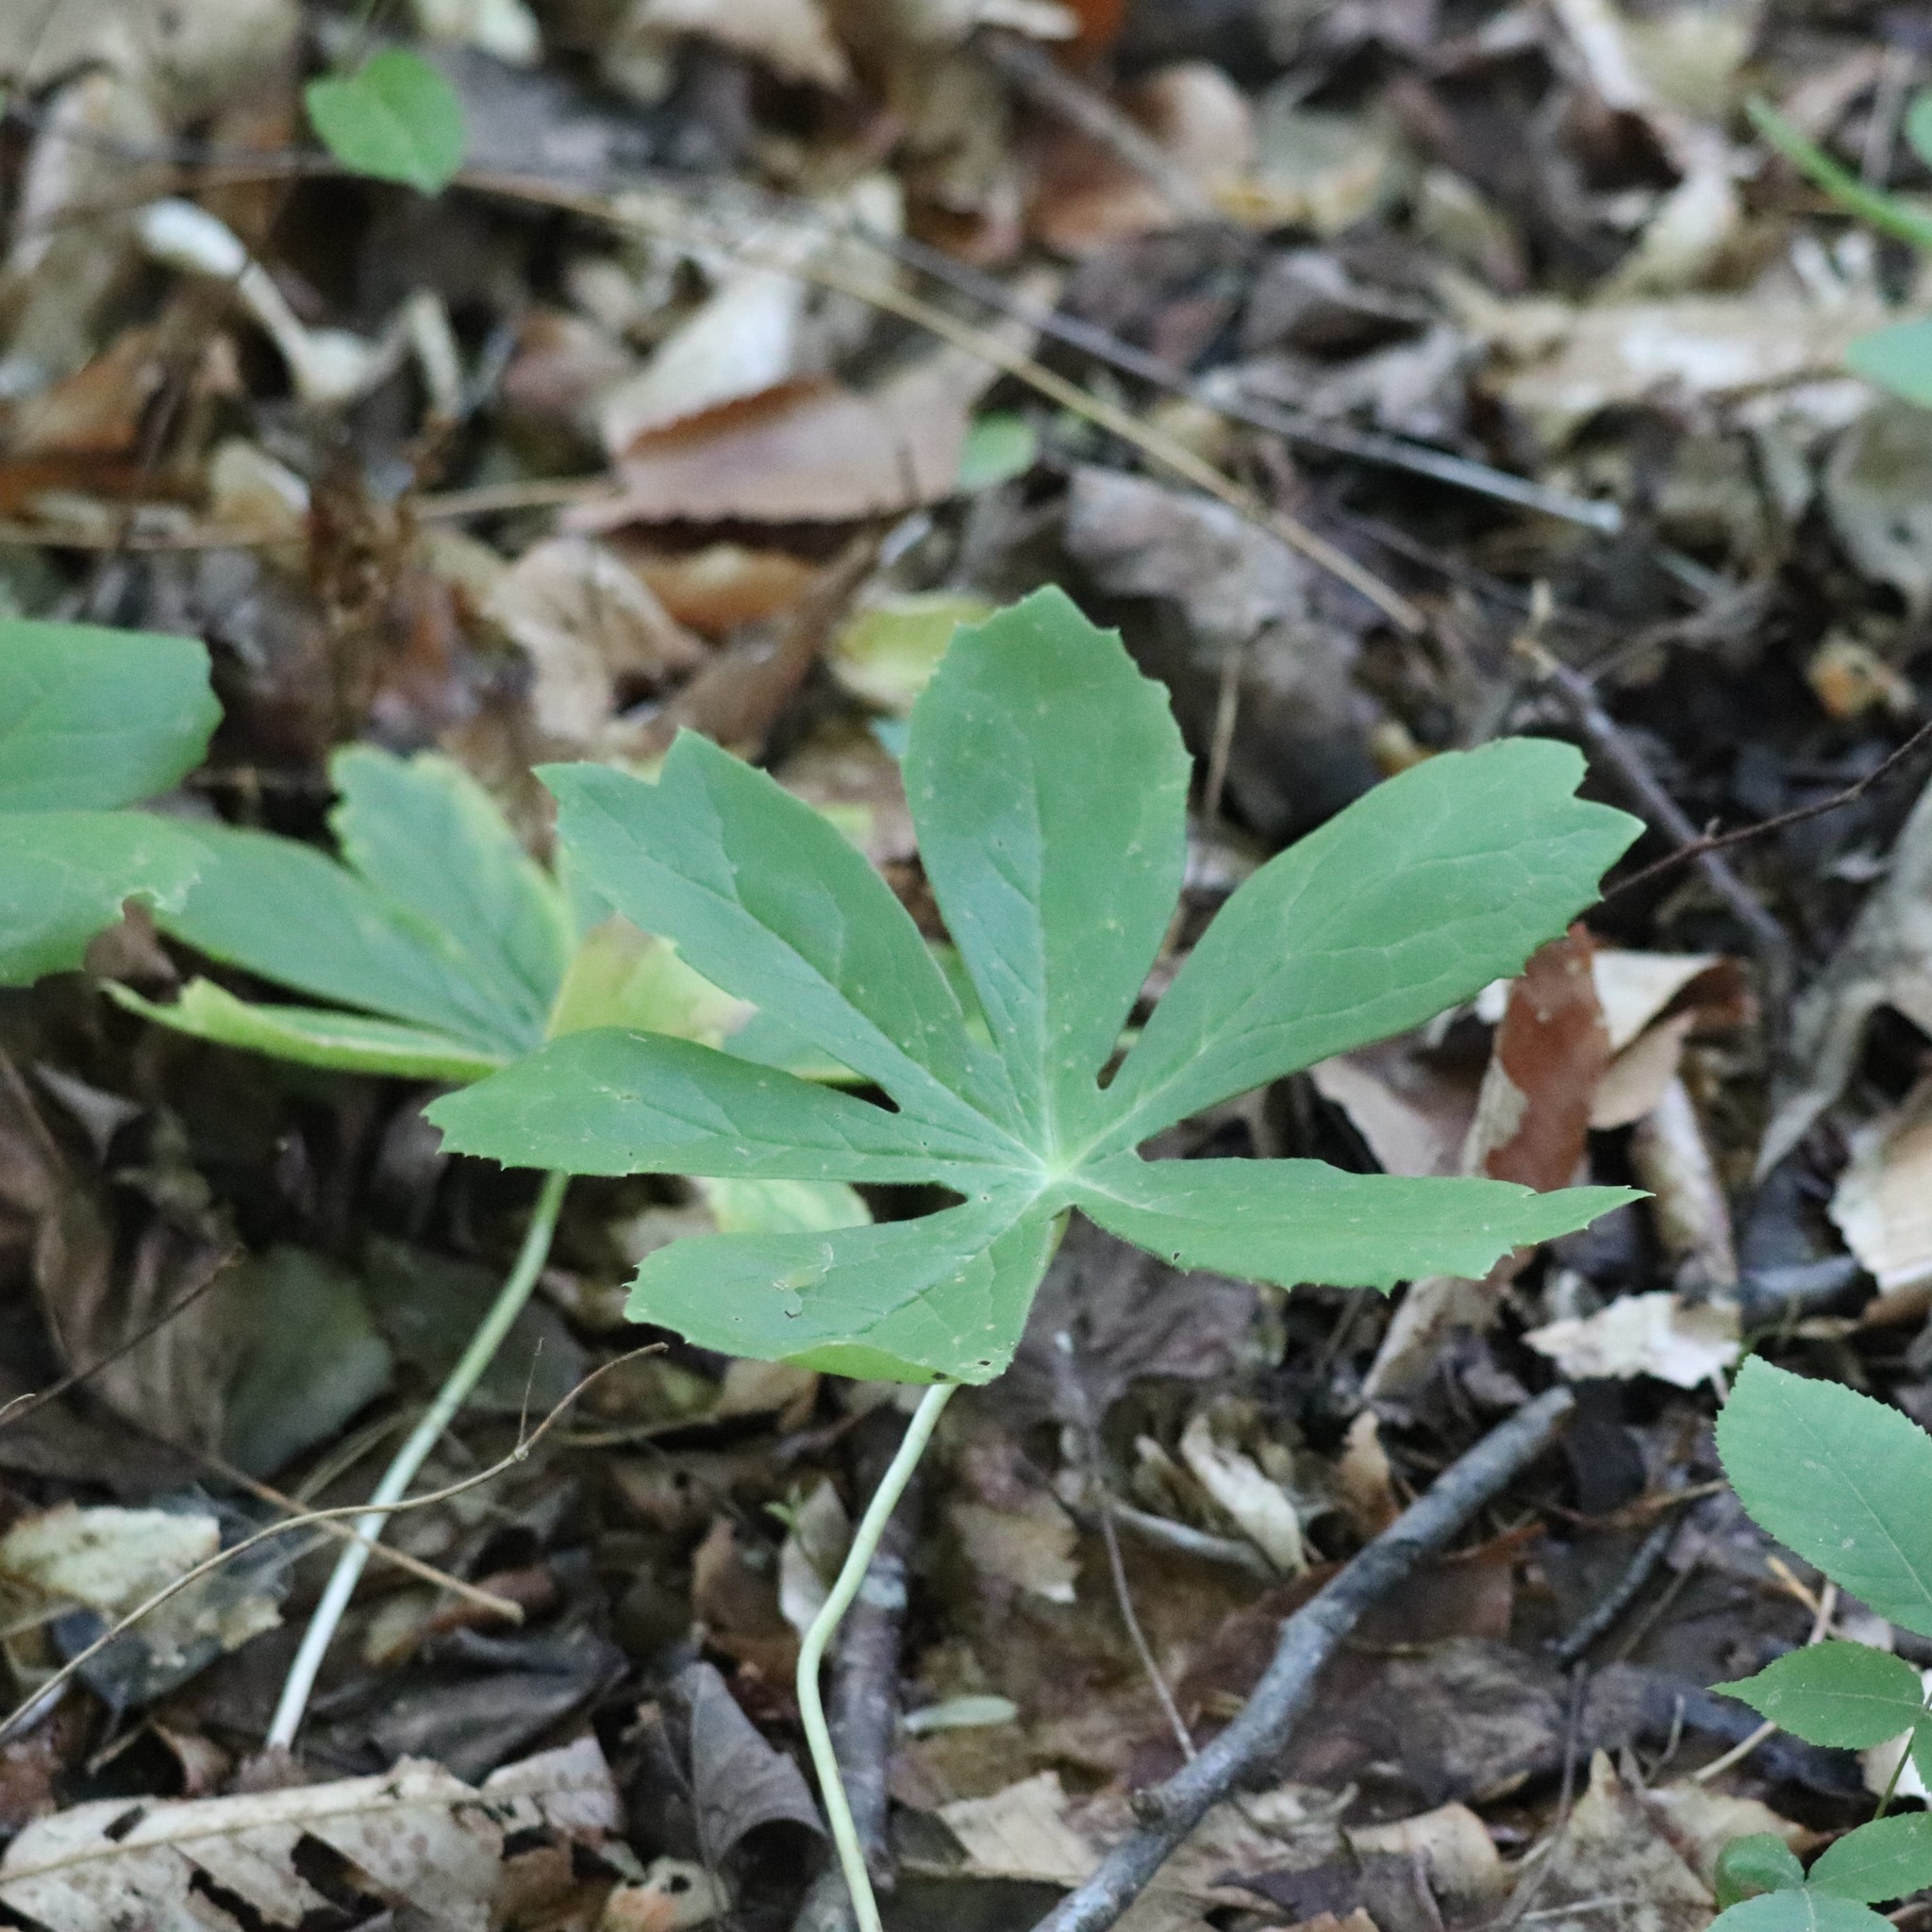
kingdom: Plantae
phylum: Tracheophyta
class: Magnoliopsida
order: Ranunculales
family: Berberidaceae
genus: Podophyllum
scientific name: Podophyllum peltatum
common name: Wild mandrake
